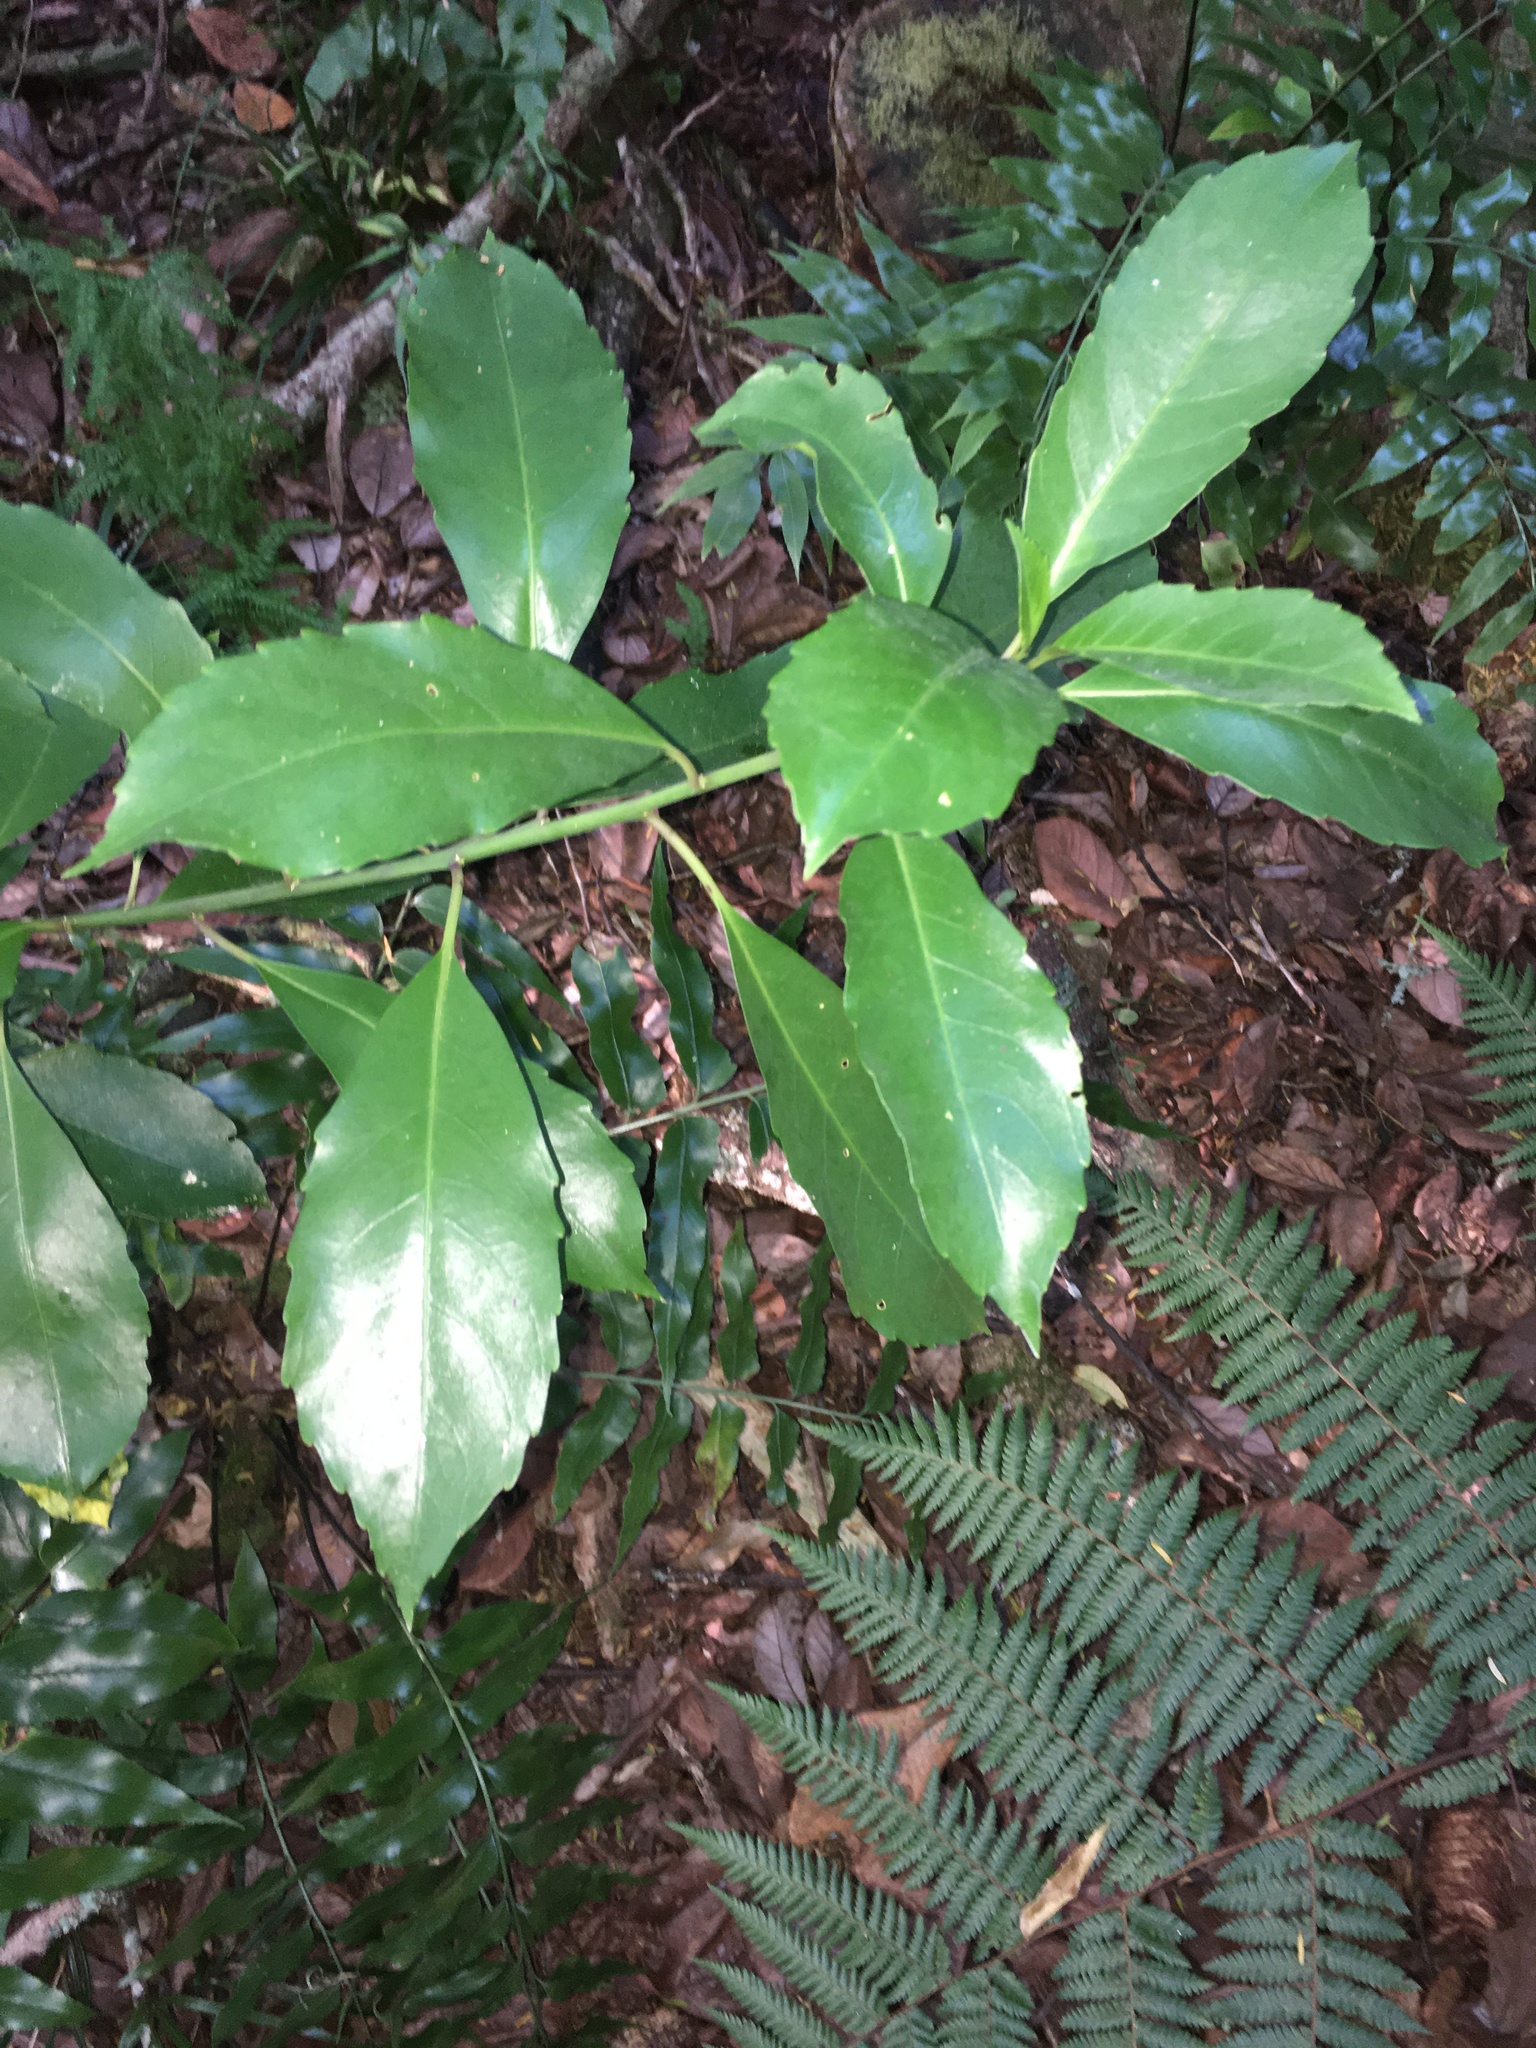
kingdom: Plantae
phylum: Tracheophyta
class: Magnoliopsida
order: Malpighiales
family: Violaceae
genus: Melicytus
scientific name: Melicytus macrophyllus
